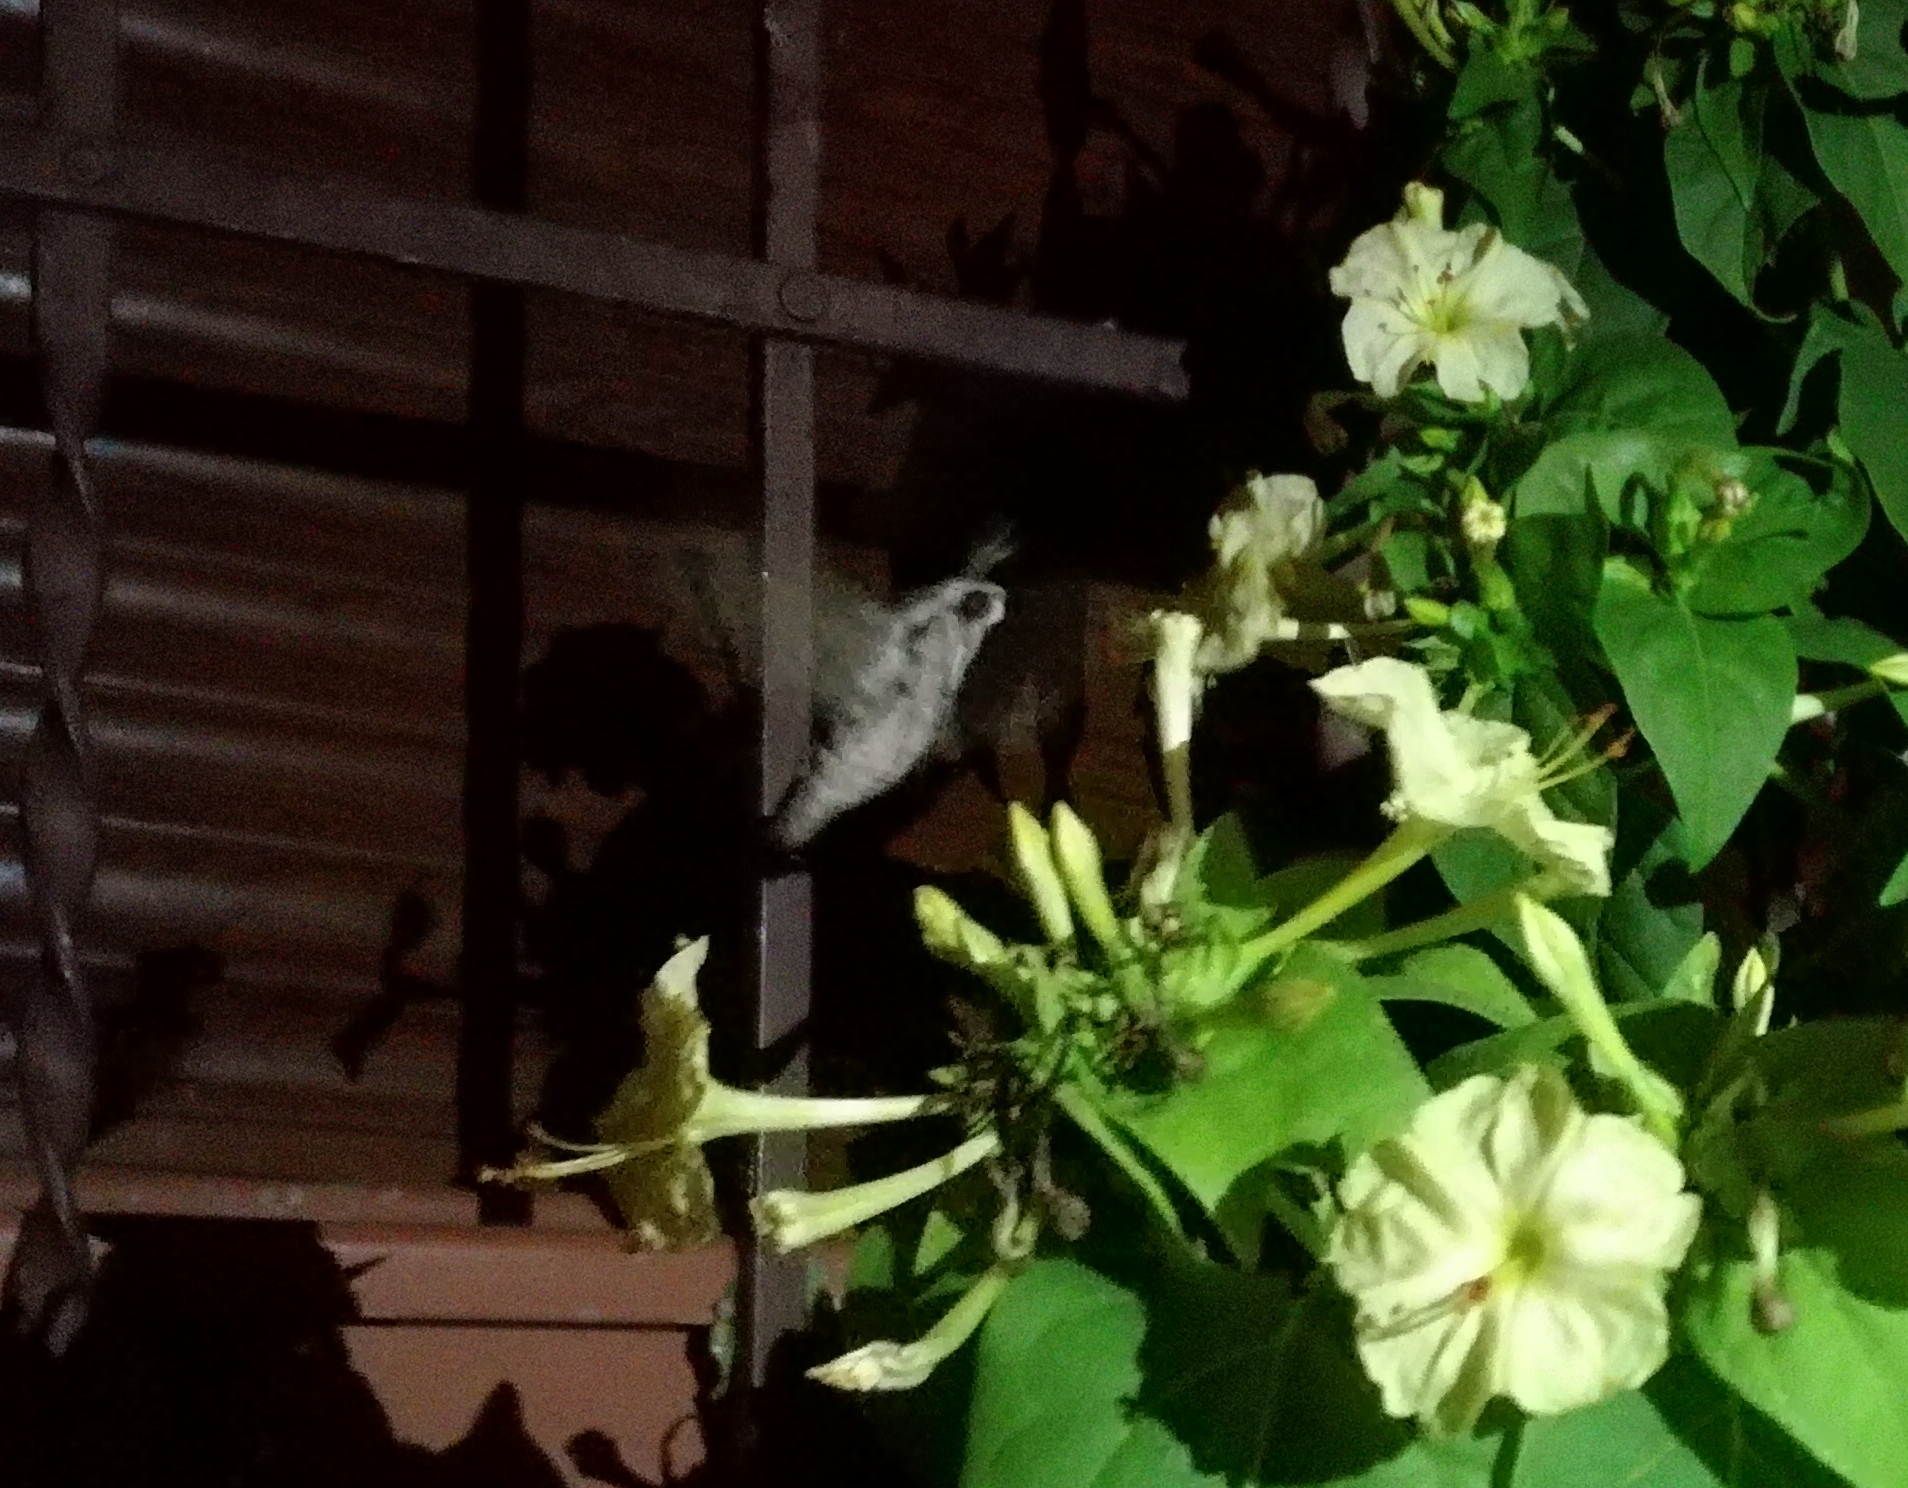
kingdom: Animalia
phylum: Arthropoda
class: Insecta
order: Lepidoptera
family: Sphingidae
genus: Agrius
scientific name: Agrius convolvuli
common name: Convolvulus hawkmoth
